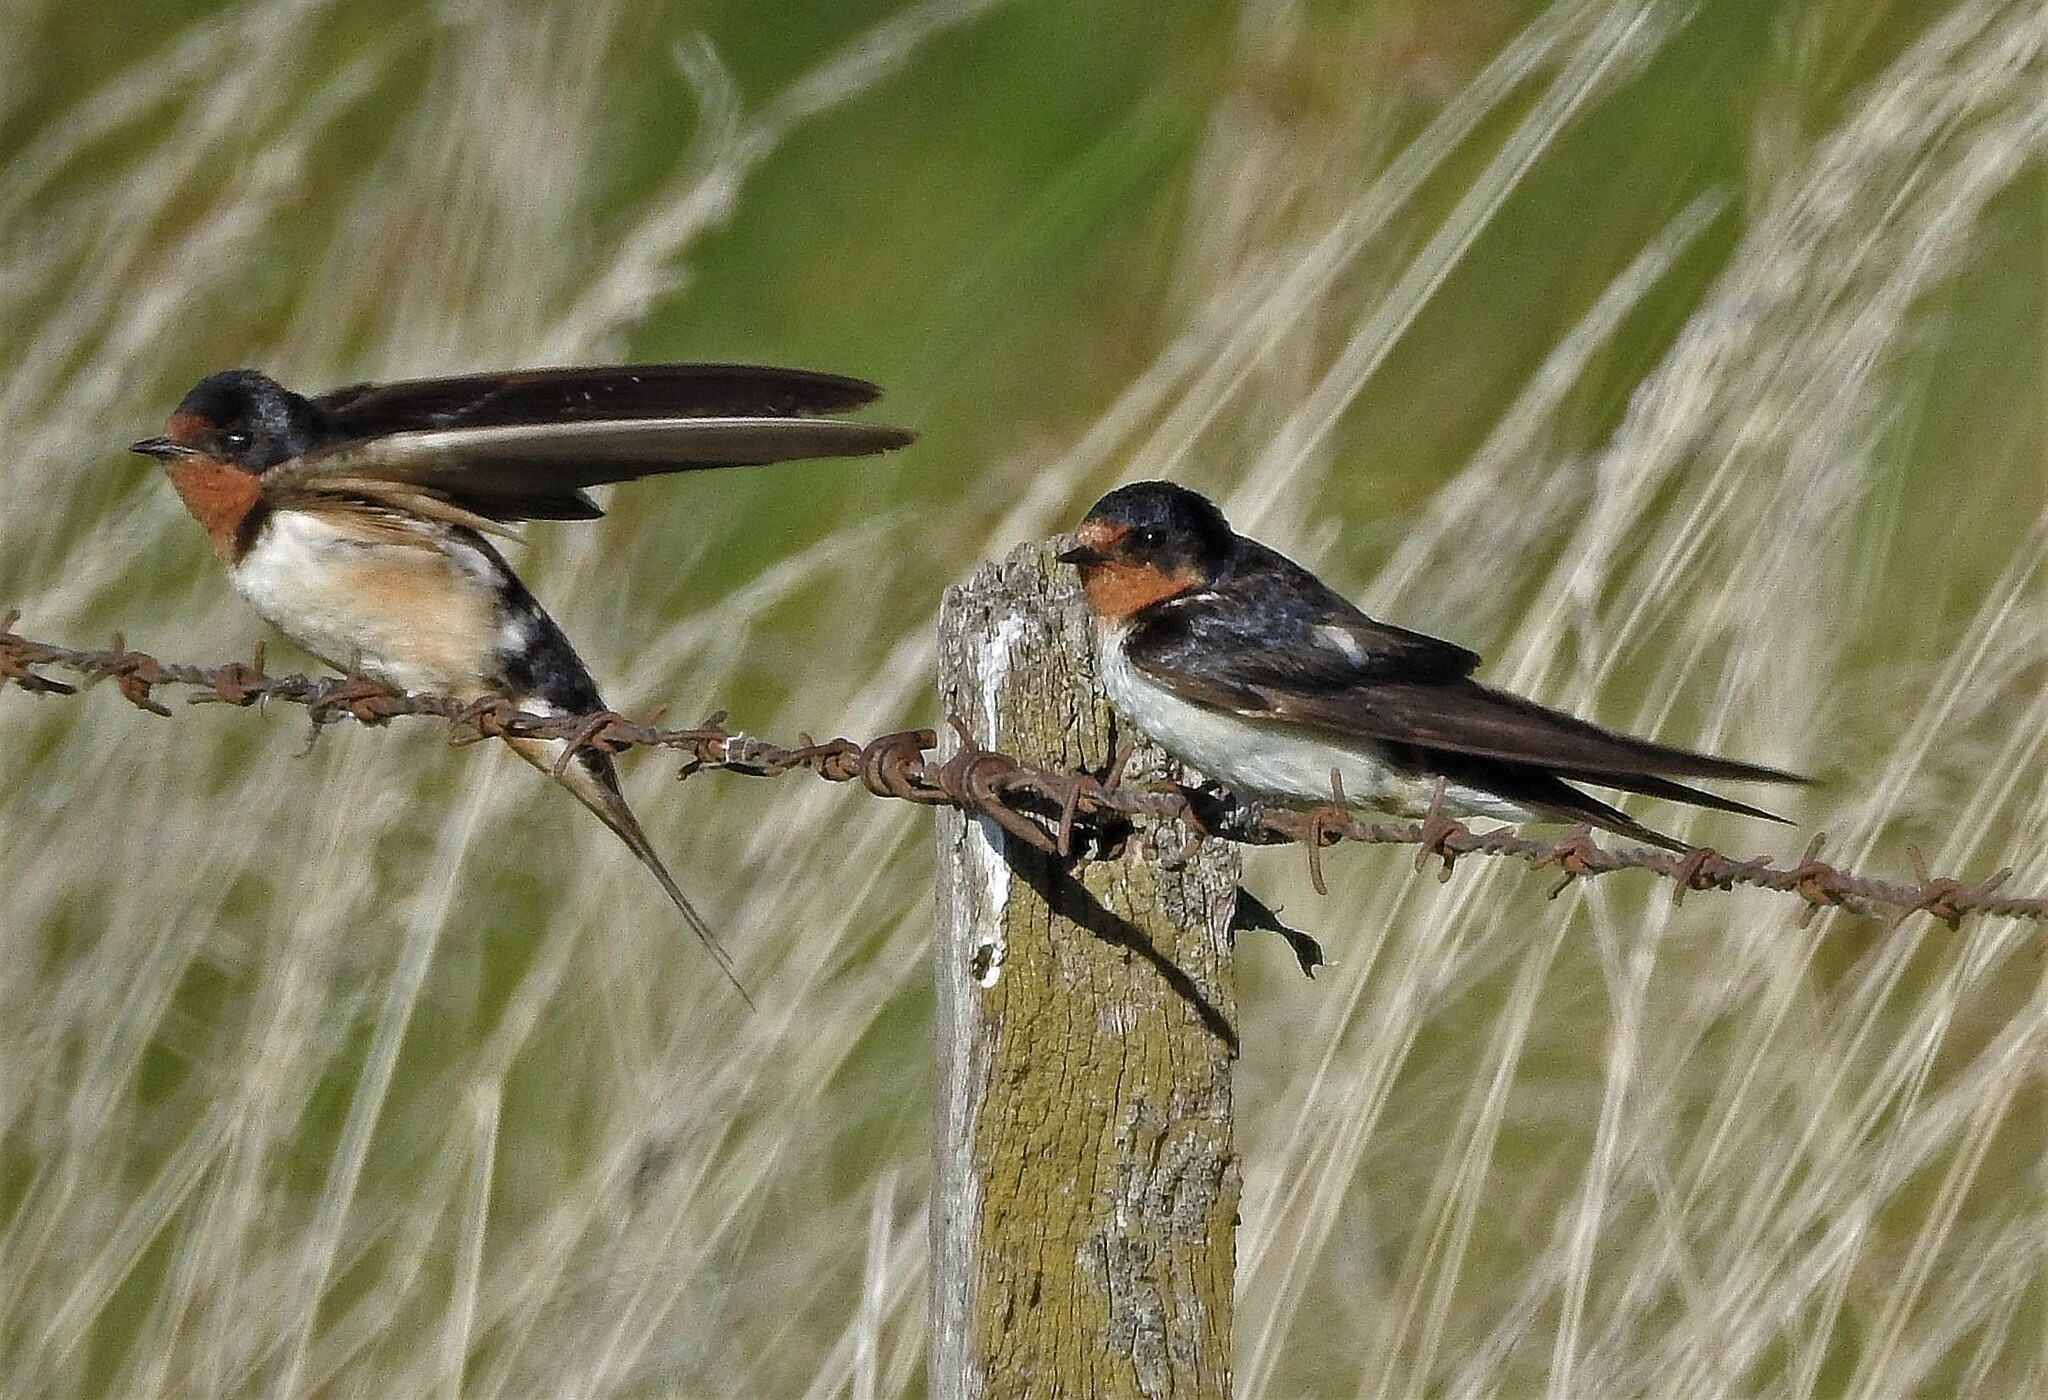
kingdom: Animalia
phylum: Chordata
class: Aves
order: Passeriformes
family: Hirundinidae
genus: Hirundo
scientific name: Hirundo rustica
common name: Barn swallow
